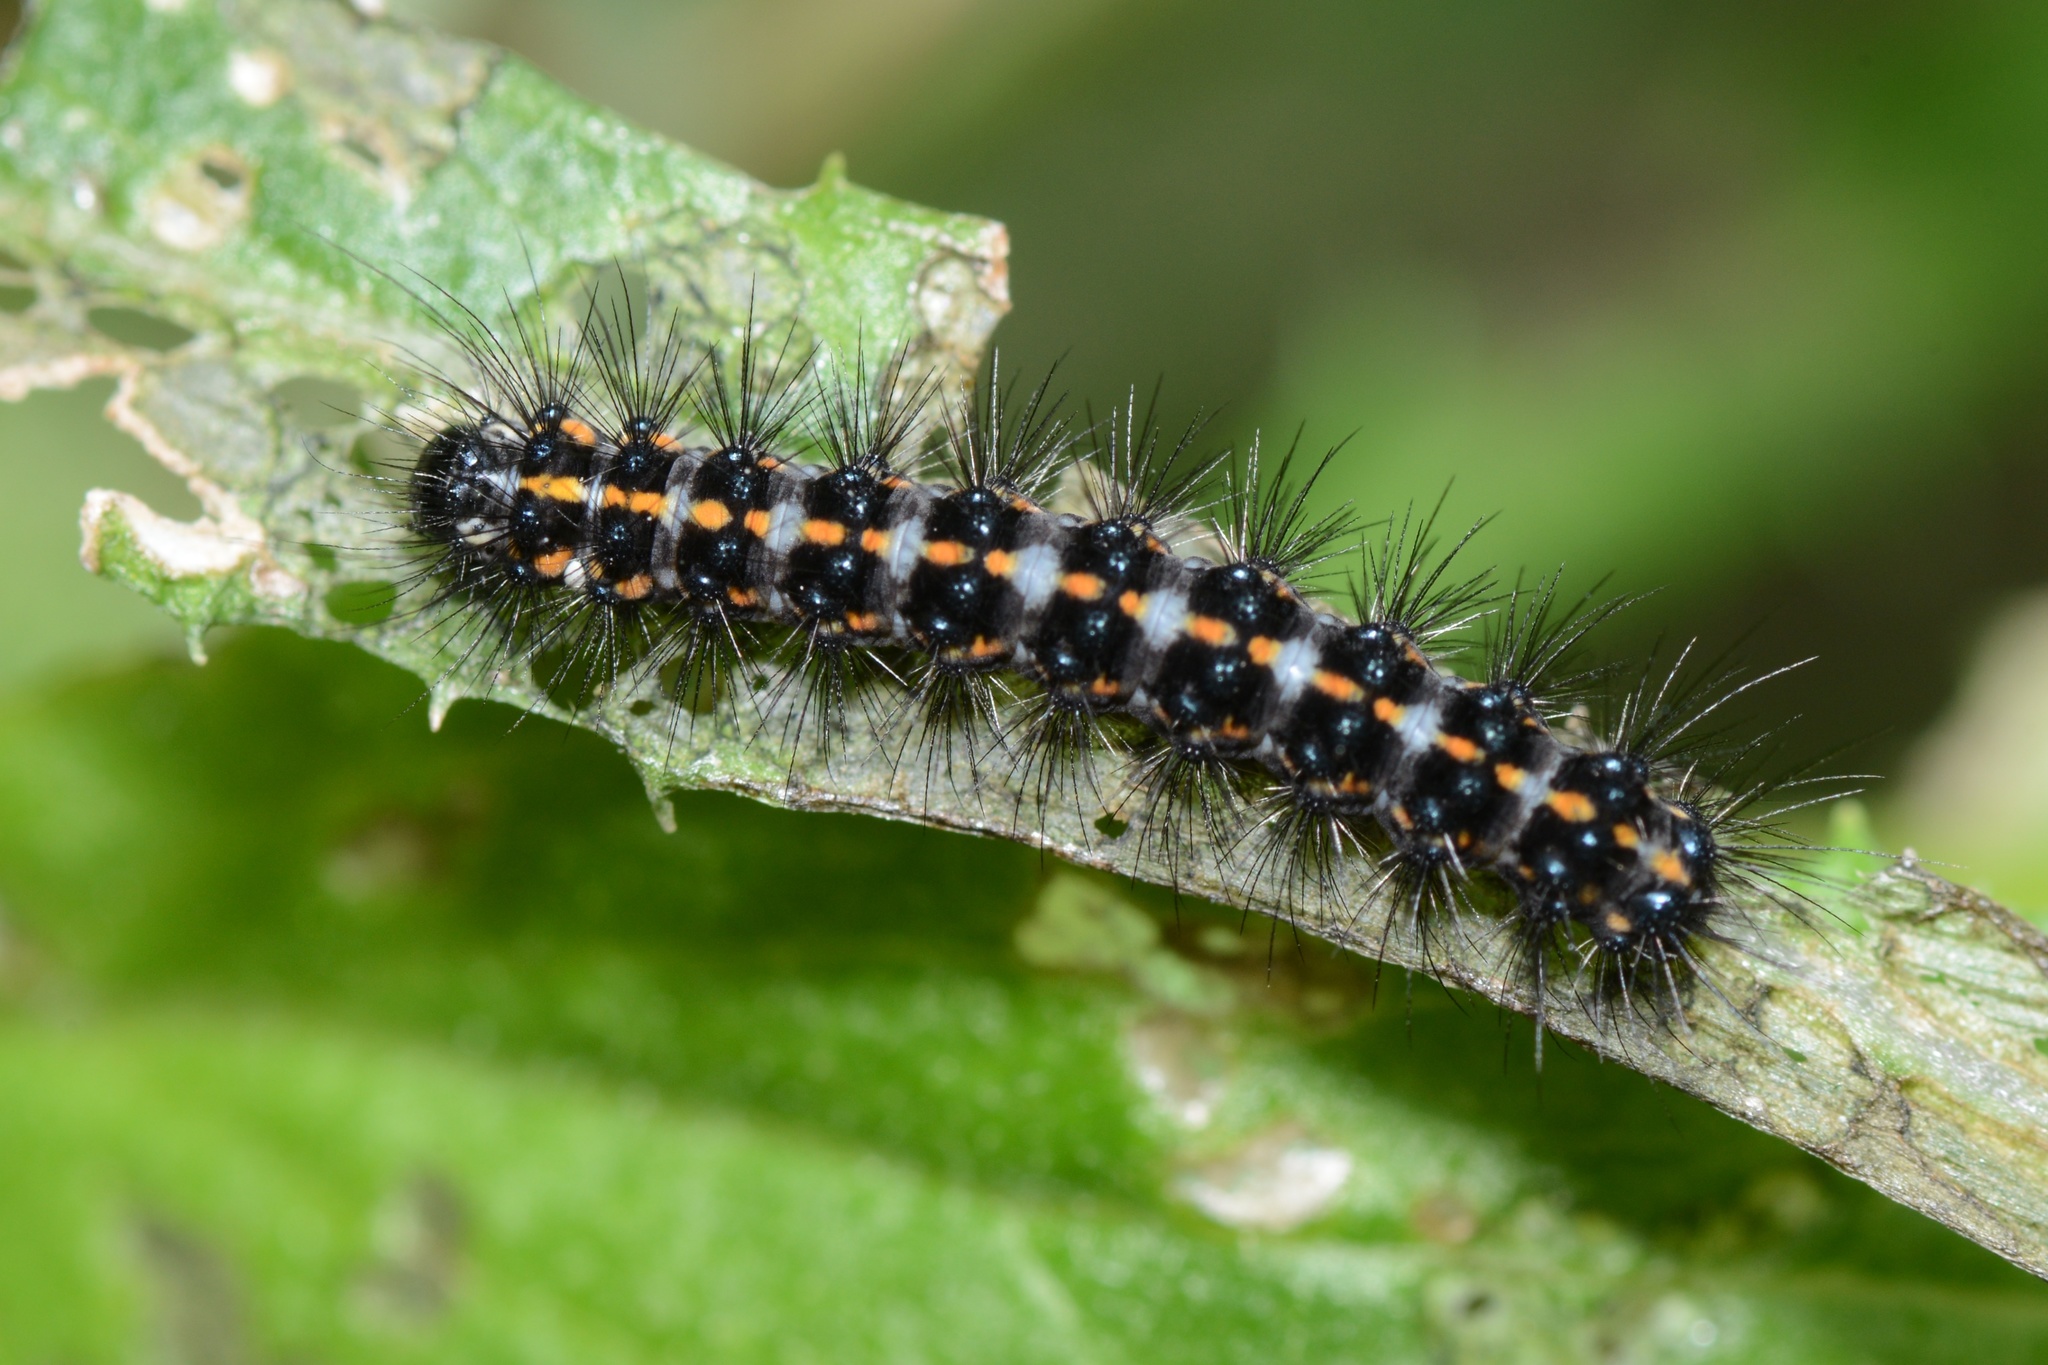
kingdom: Animalia
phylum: Arthropoda
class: Insecta
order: Lepidoptera
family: Erebidae
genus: Nyctemera
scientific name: Nyctemera annulatum
